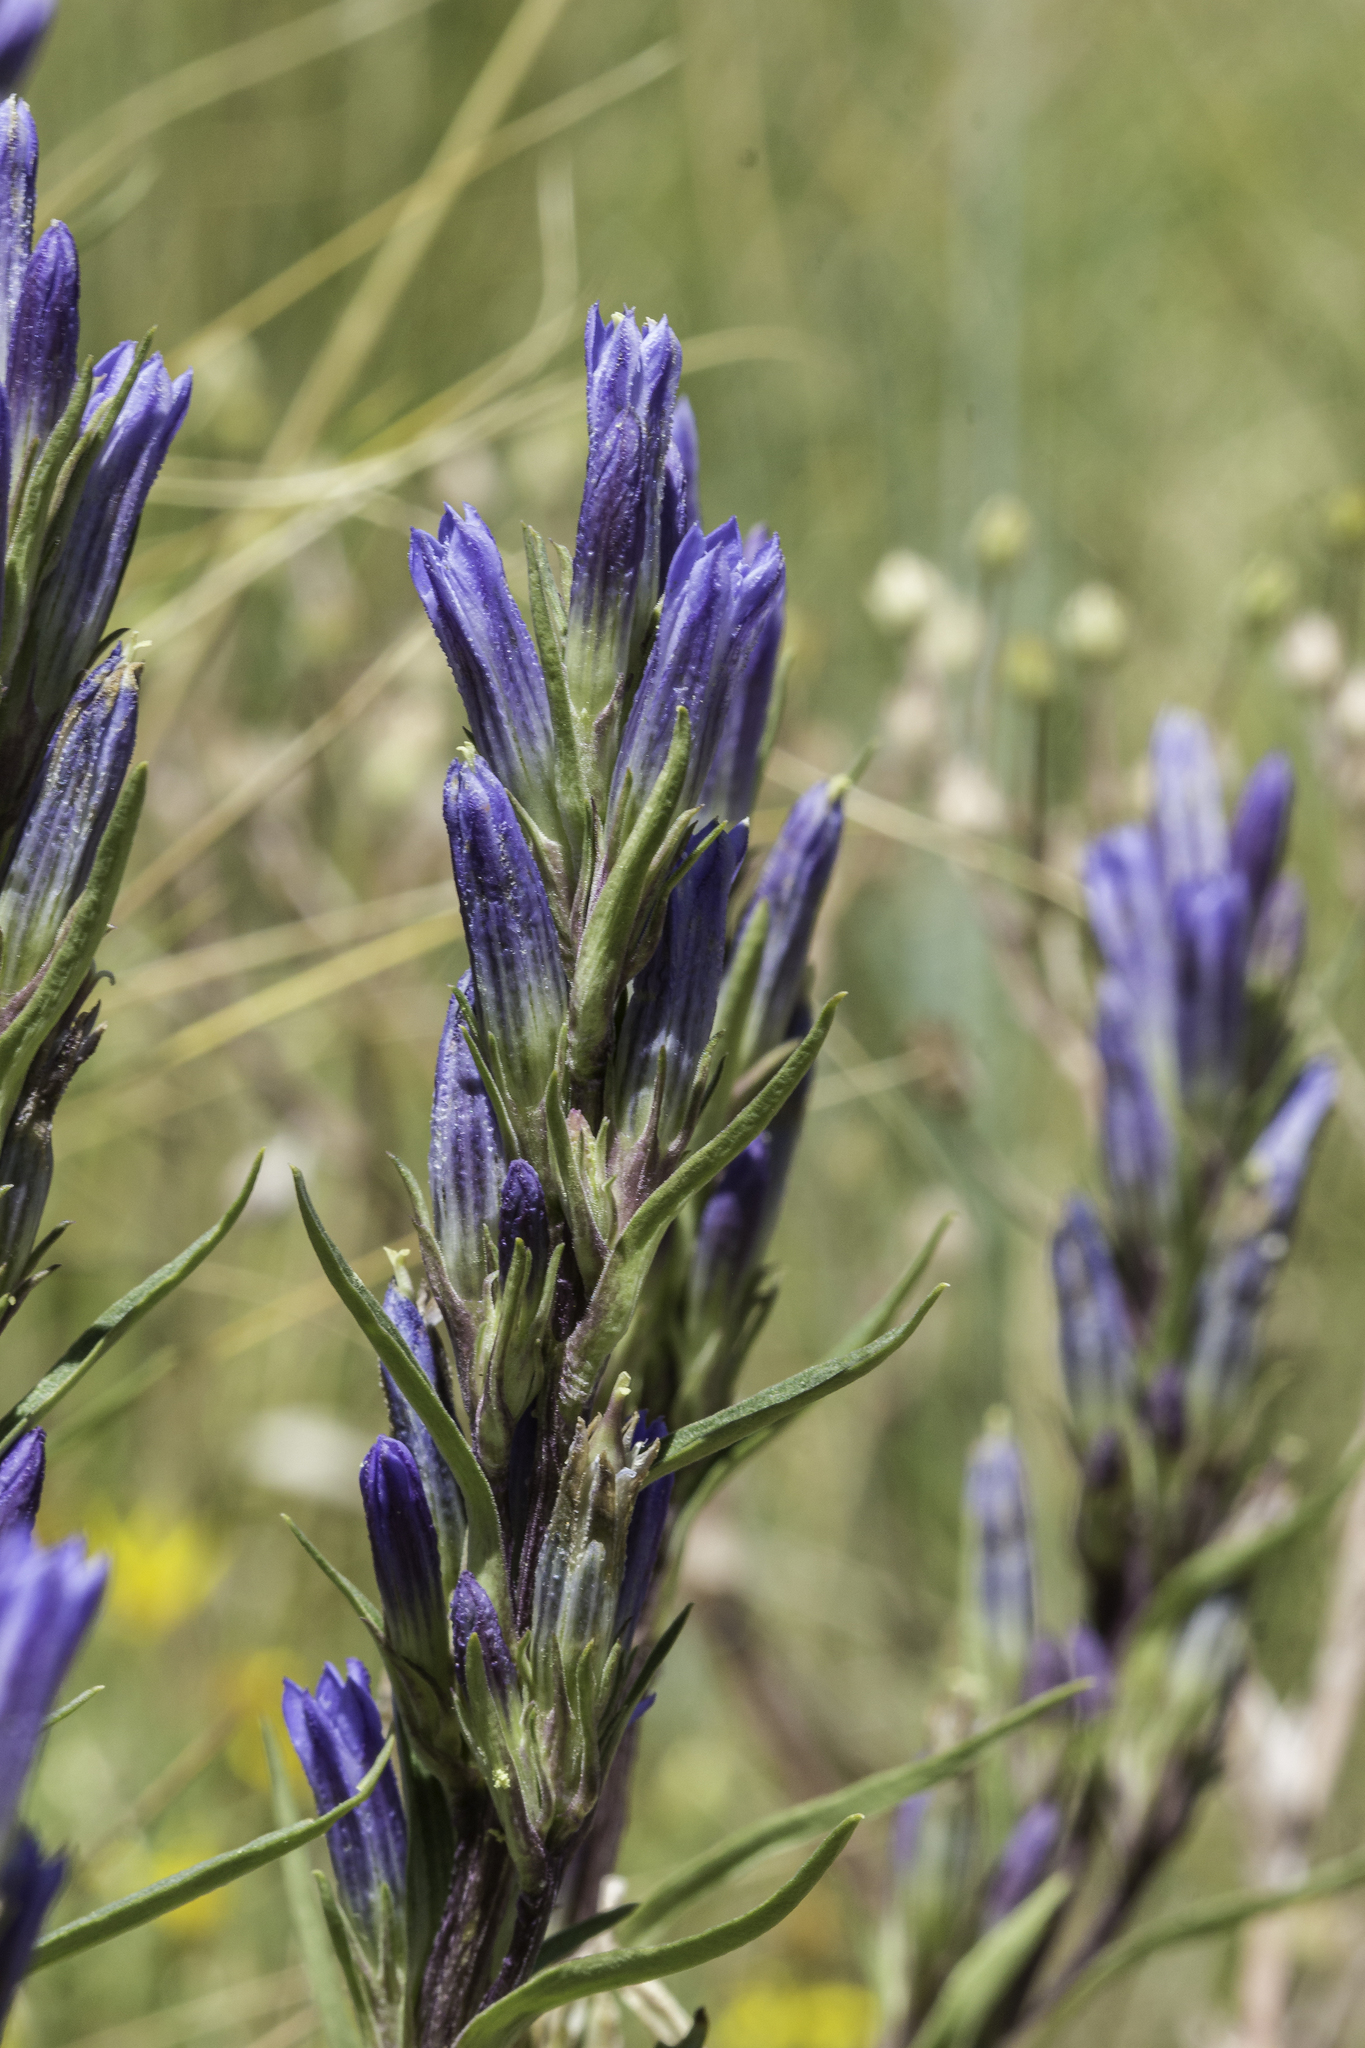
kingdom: Plantae
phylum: Tracheophyta
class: Magnoliopsida
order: Gentianales
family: Gentianaceae
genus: Gentiana
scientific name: Gentiana affinis
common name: Rocky mountain gentian
